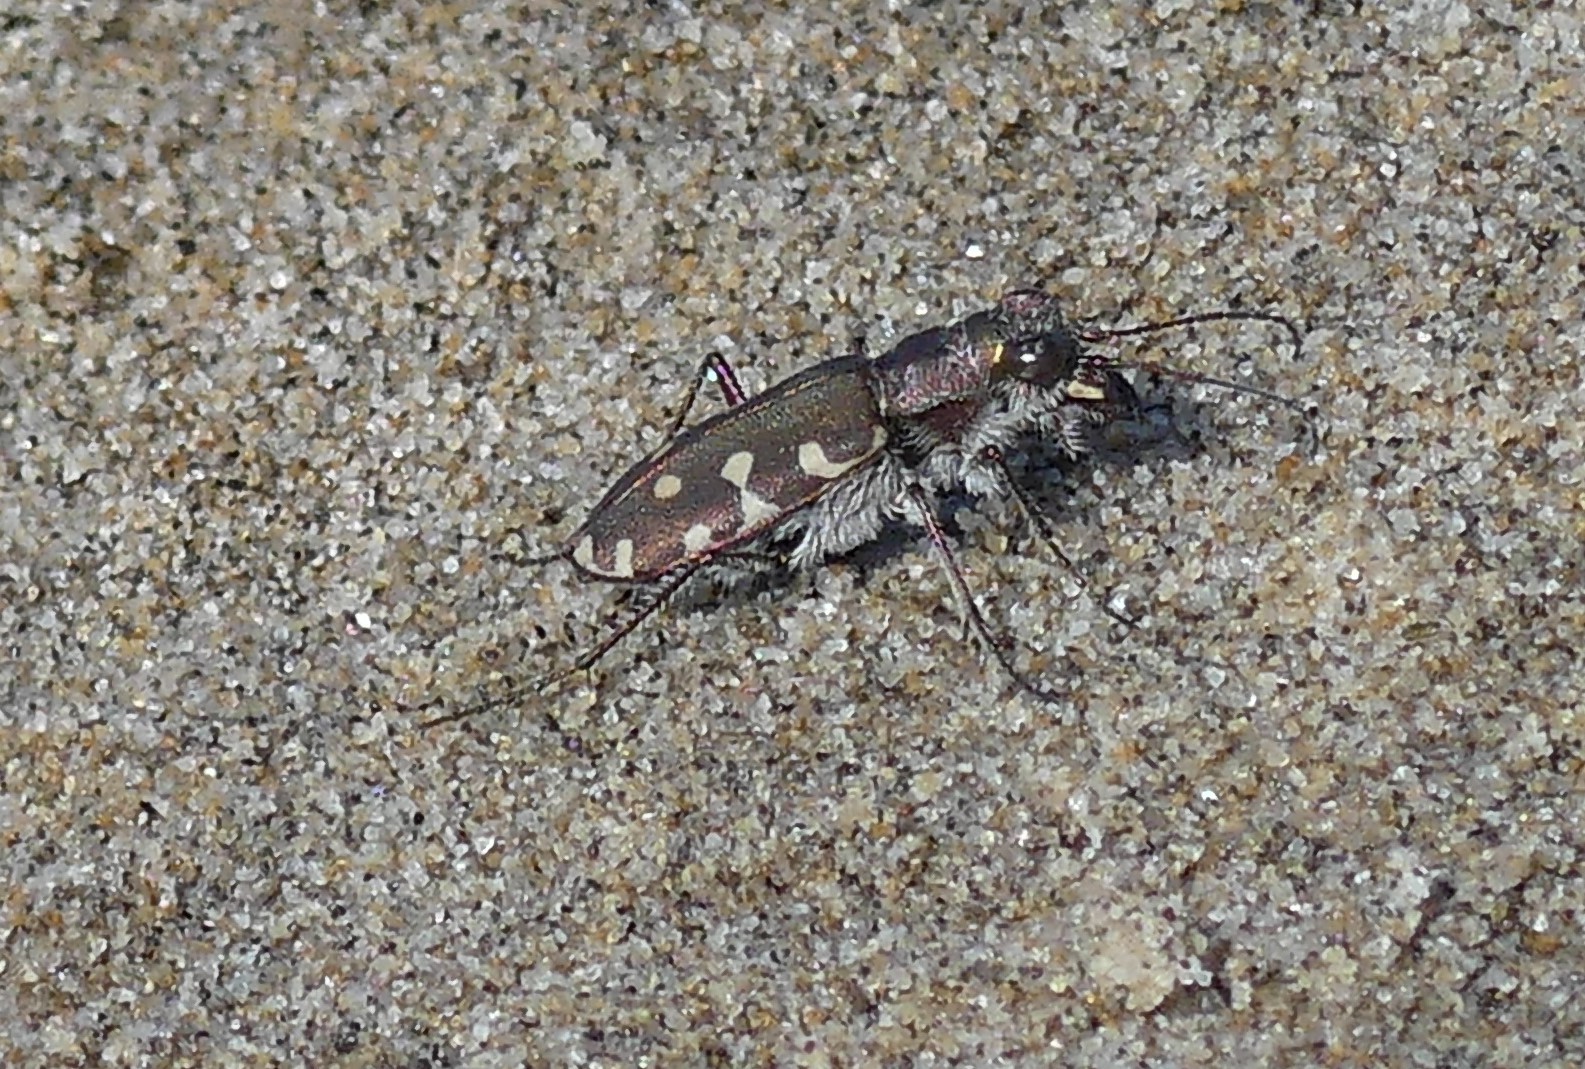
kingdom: Animalia
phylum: Arthropoda
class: Insecta
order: Coleoptera
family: Carabidae
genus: Cicindela
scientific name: Cicindela littoralis
